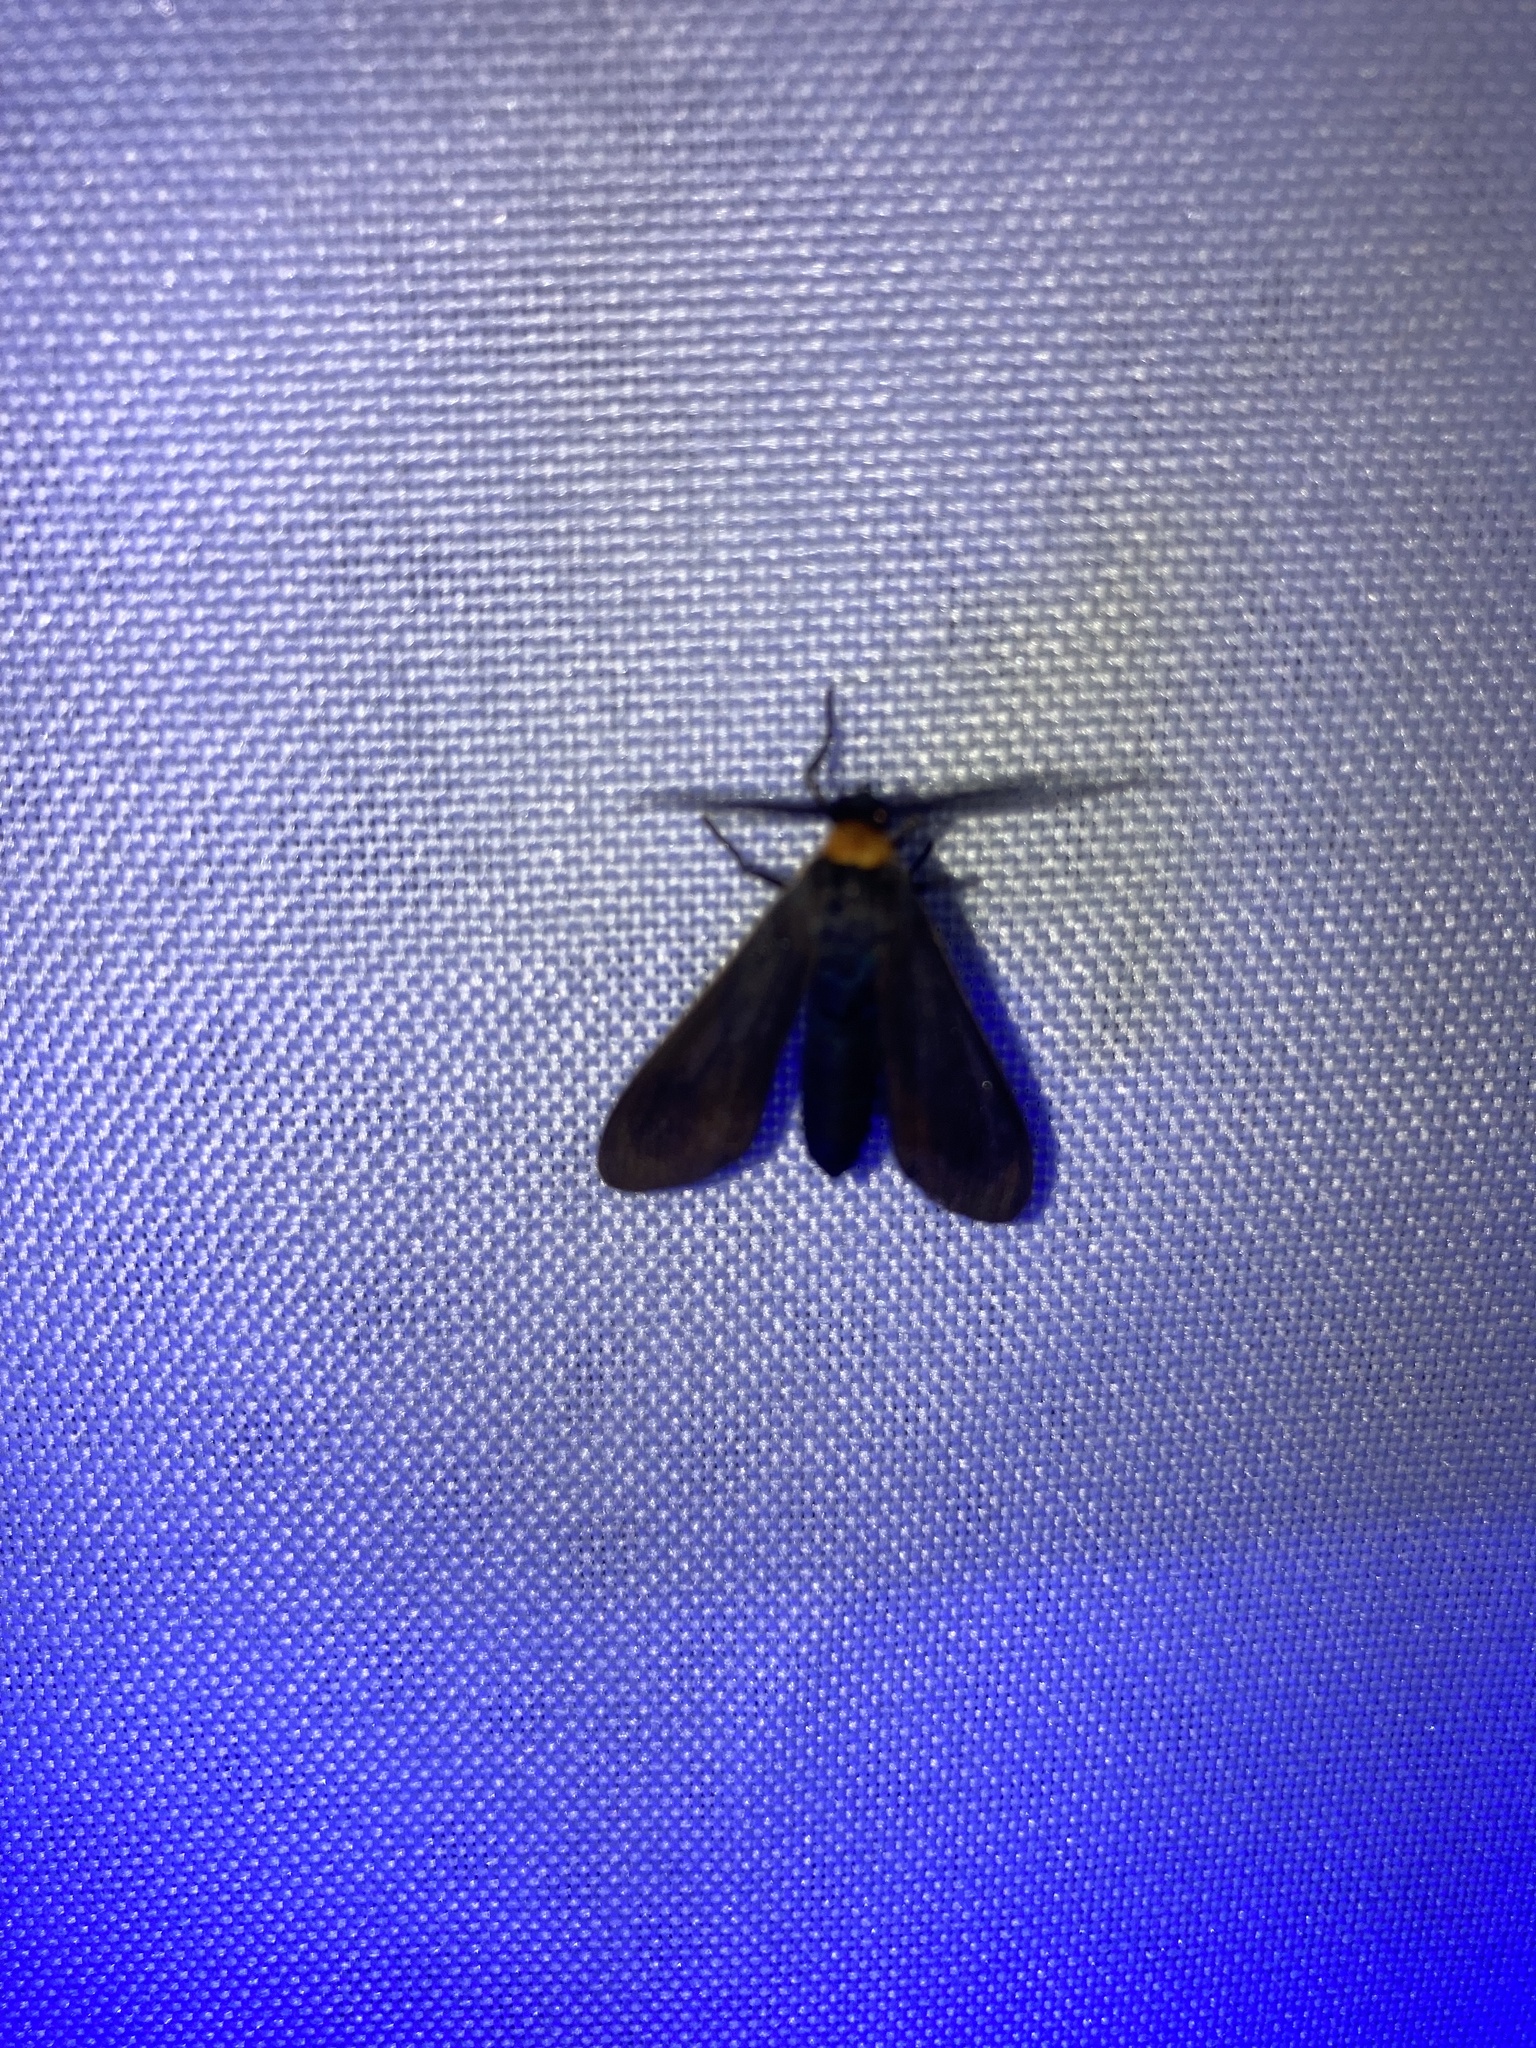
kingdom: Animalia
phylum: Arthropoda
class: Insecta
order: Lepidoptera
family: Erebidae
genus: Cisseps
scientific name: Cisseps fulvicollis
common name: Yellow-collared scape moth
